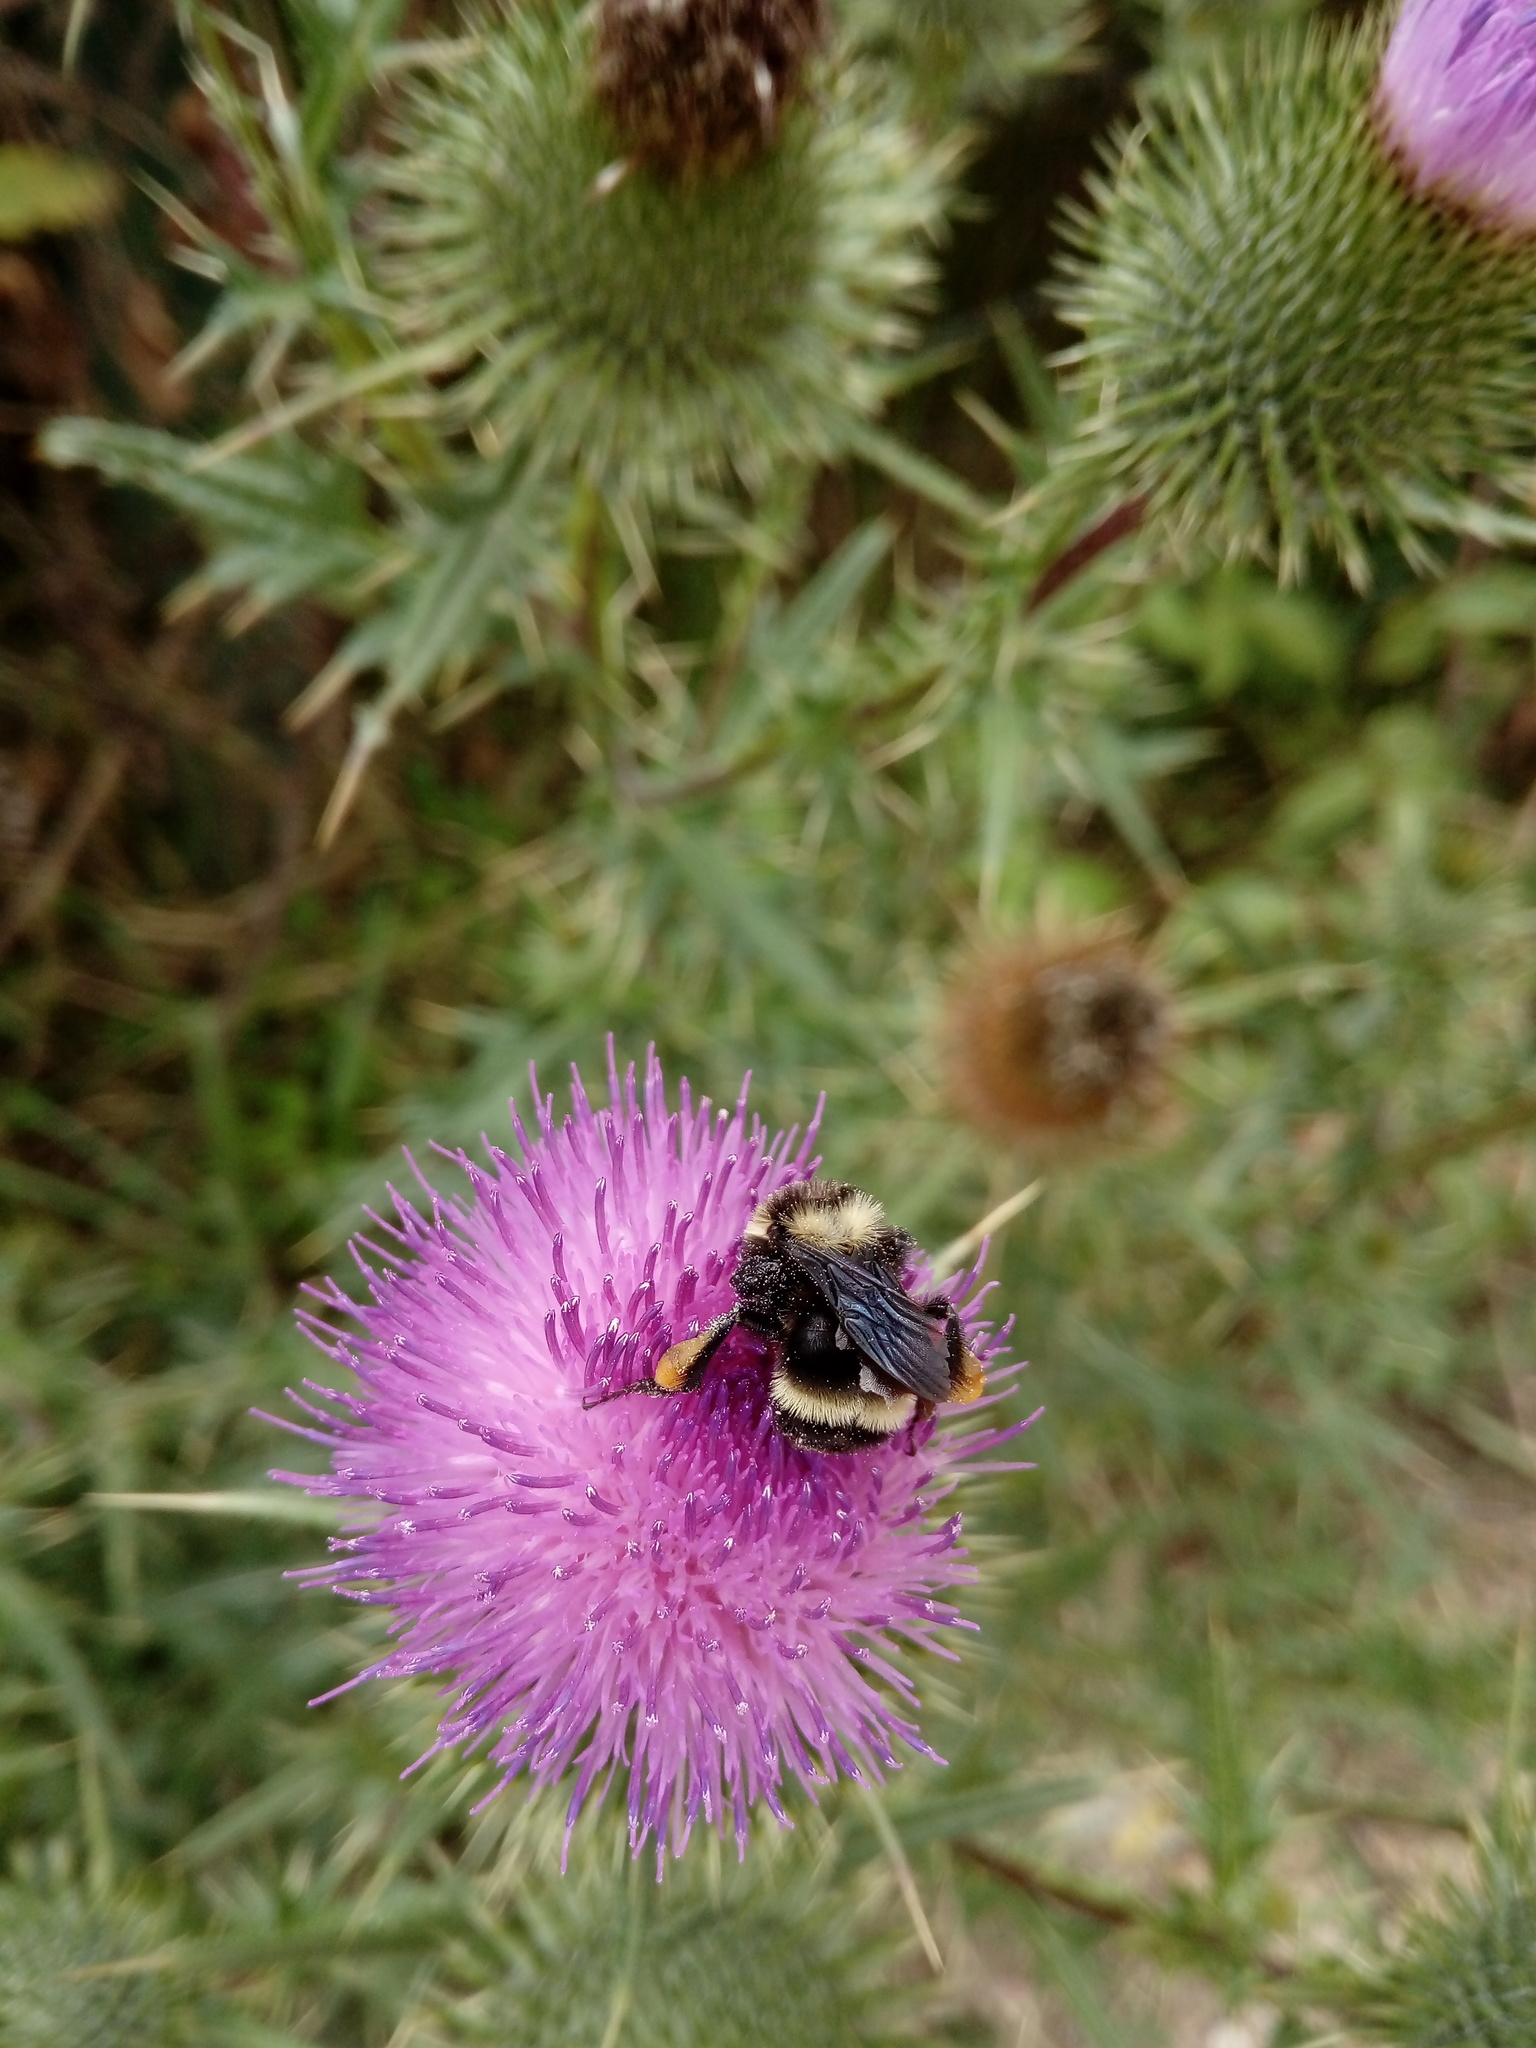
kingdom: Animalia
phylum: Arthropoda
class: Insecta
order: Hymenoptera
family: Apidae
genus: Bombus
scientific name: Bombus pauloensis
